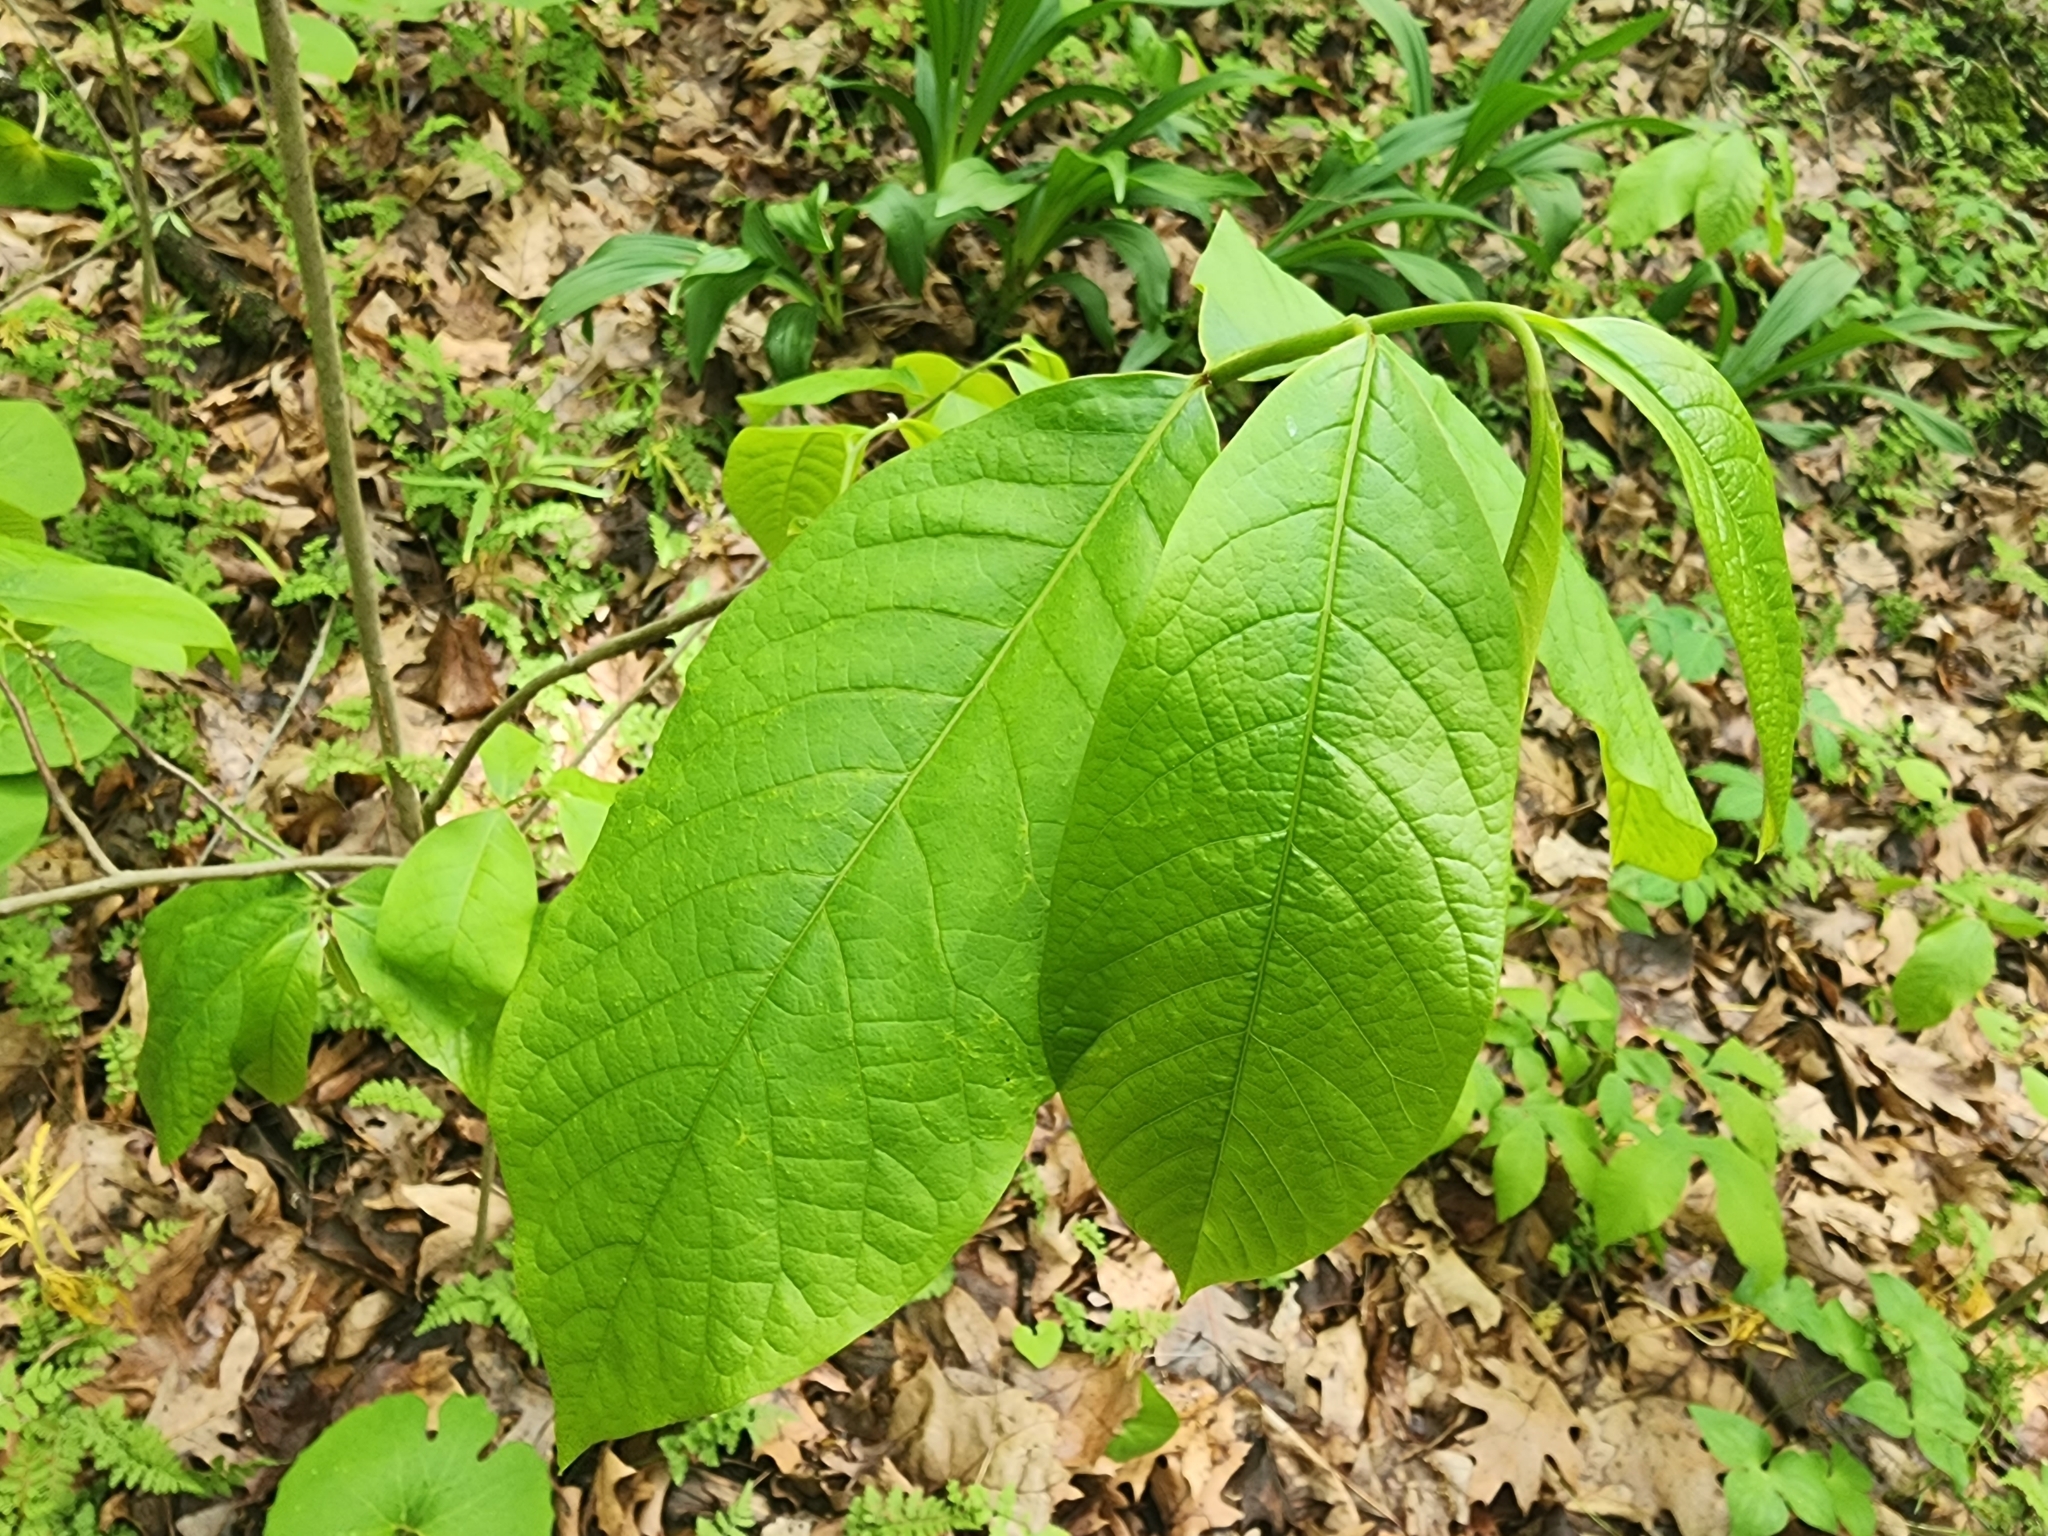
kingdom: Plantae
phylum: Tracheophyta
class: Magnoliopsida
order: Magnoliales
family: Annonaceae
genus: Asimina
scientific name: Asimina triloba
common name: Dog-banana
